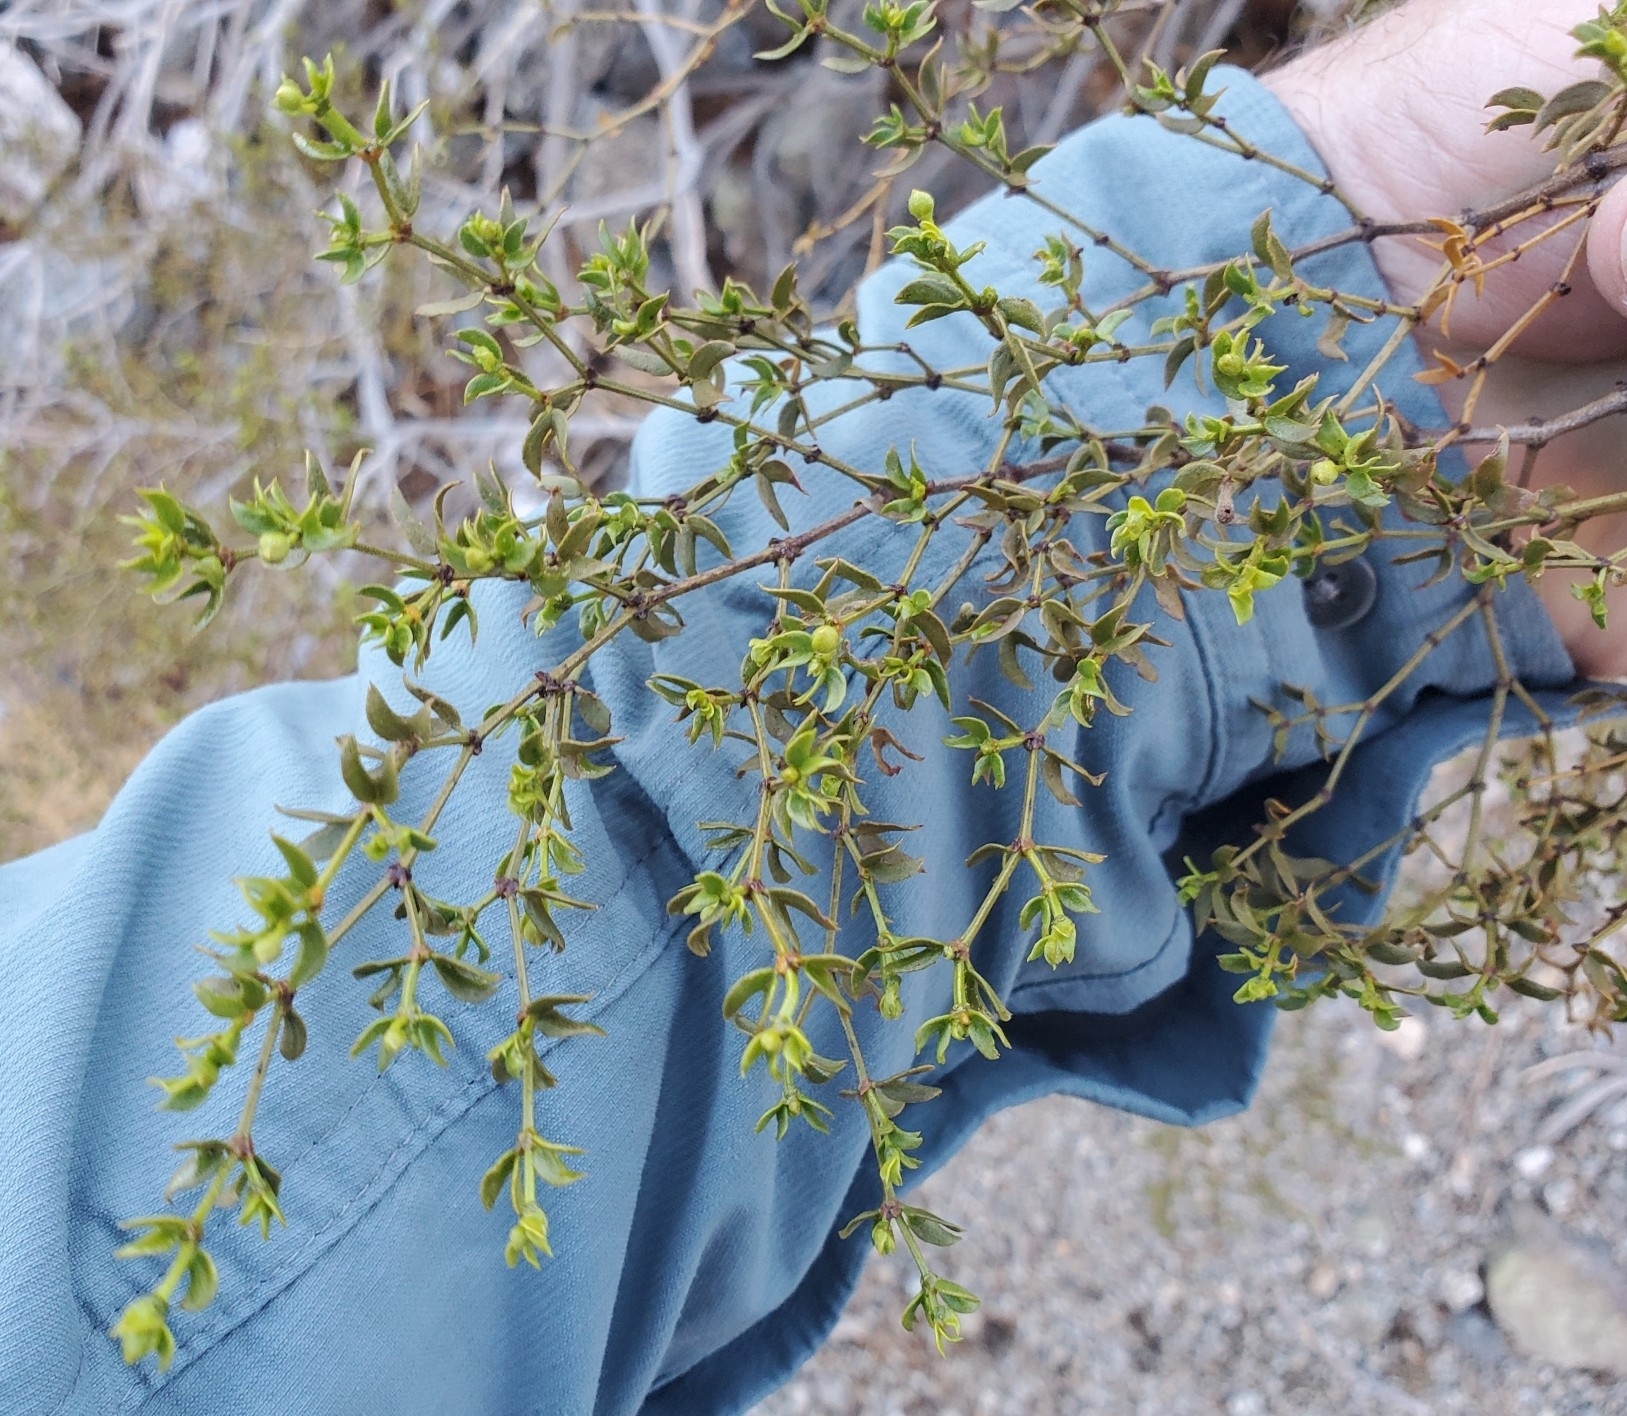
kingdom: Plantae
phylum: Tracheophyta
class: Magnoliopsida
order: Zygophyllales
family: Zygophyllaceae
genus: Larrea
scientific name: Larrea tridentata
